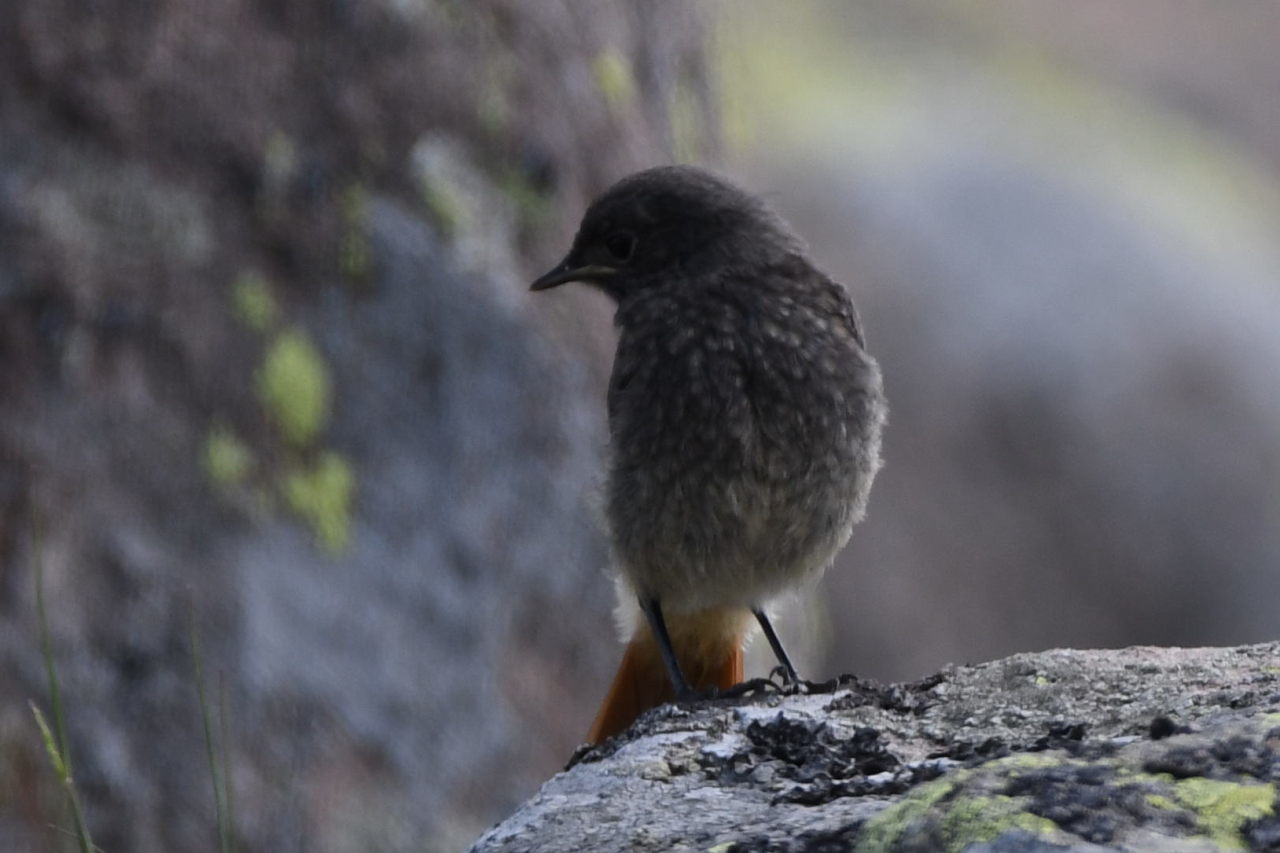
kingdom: Animalia
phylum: Chordata
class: Aves
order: Passeriformes
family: Muscicapidae
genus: Phoenicurus
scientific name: Phoenicurus ochruros
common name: Black redstart
